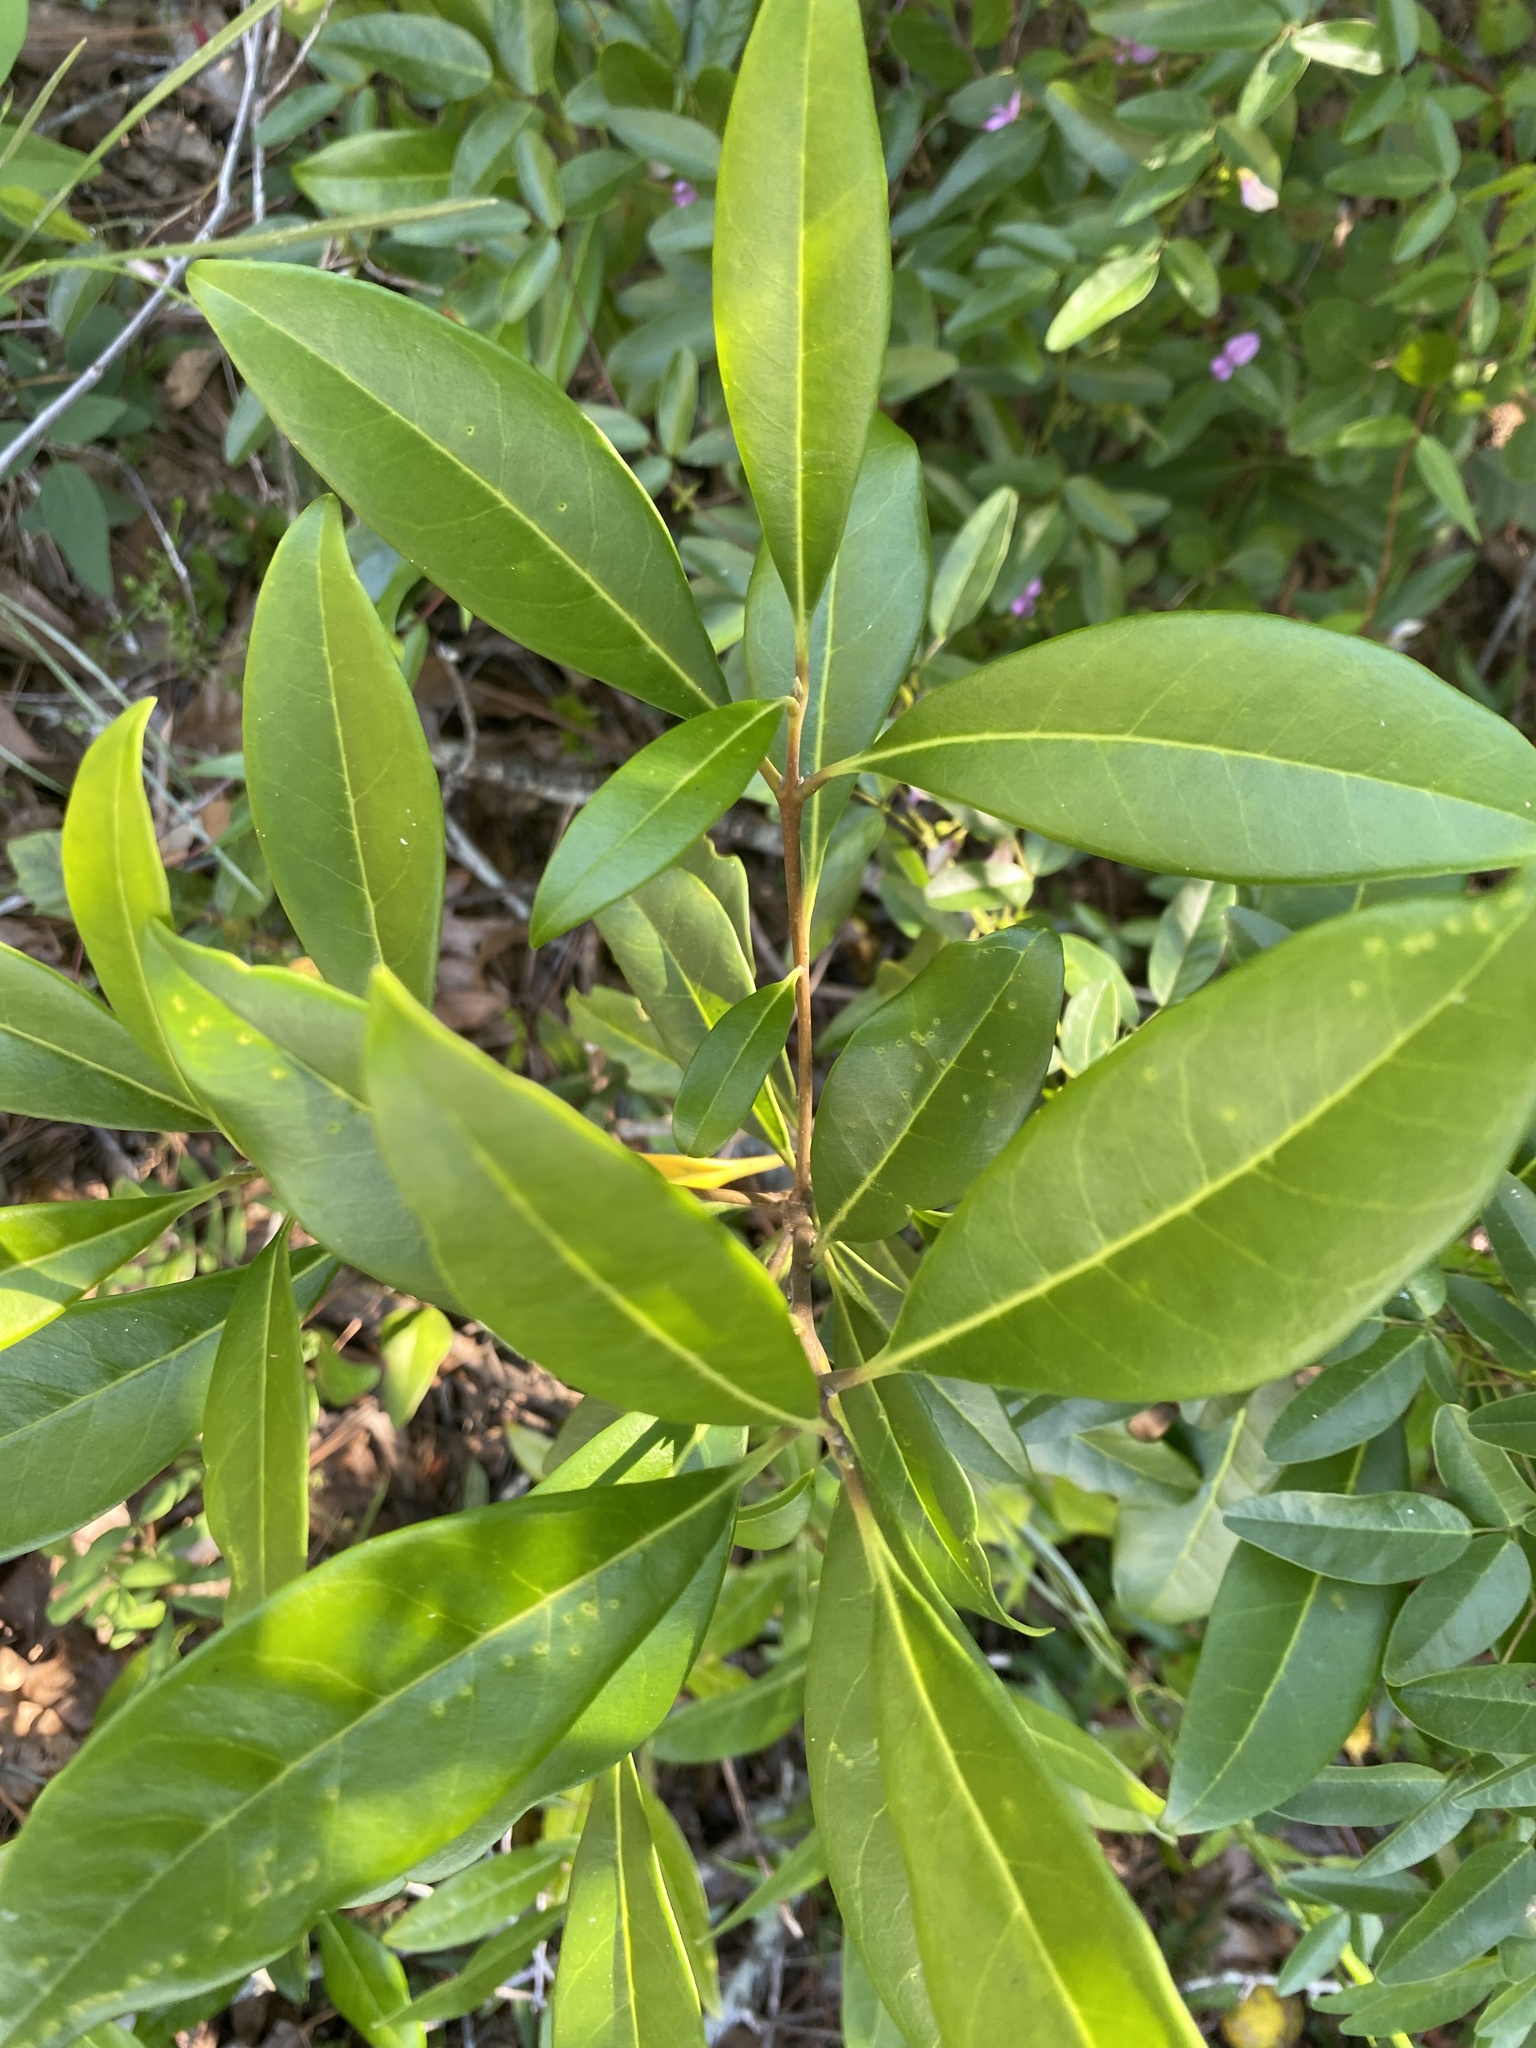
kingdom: Plantae
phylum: Tracheophyta
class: Magnoliopsida
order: Lamiales
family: Oleaceae
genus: Cartrema
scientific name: Cartrema americana
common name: Devilwood
